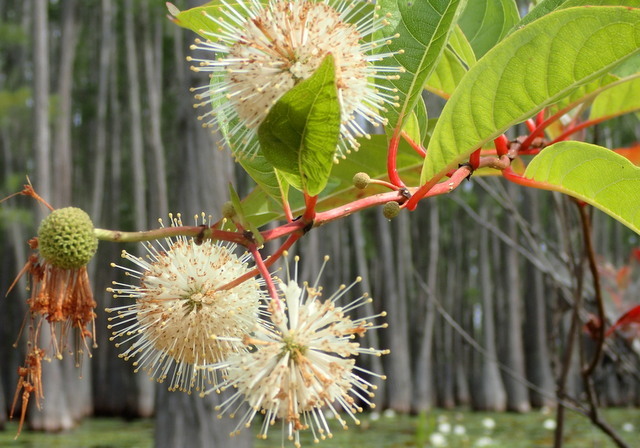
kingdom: Plantae
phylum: Tracheophyta
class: Magnoliopsida
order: Gentianales
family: Rubiaceae
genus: Cephalanthus
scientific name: Cephalanthus occidentalis
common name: Button-willow
